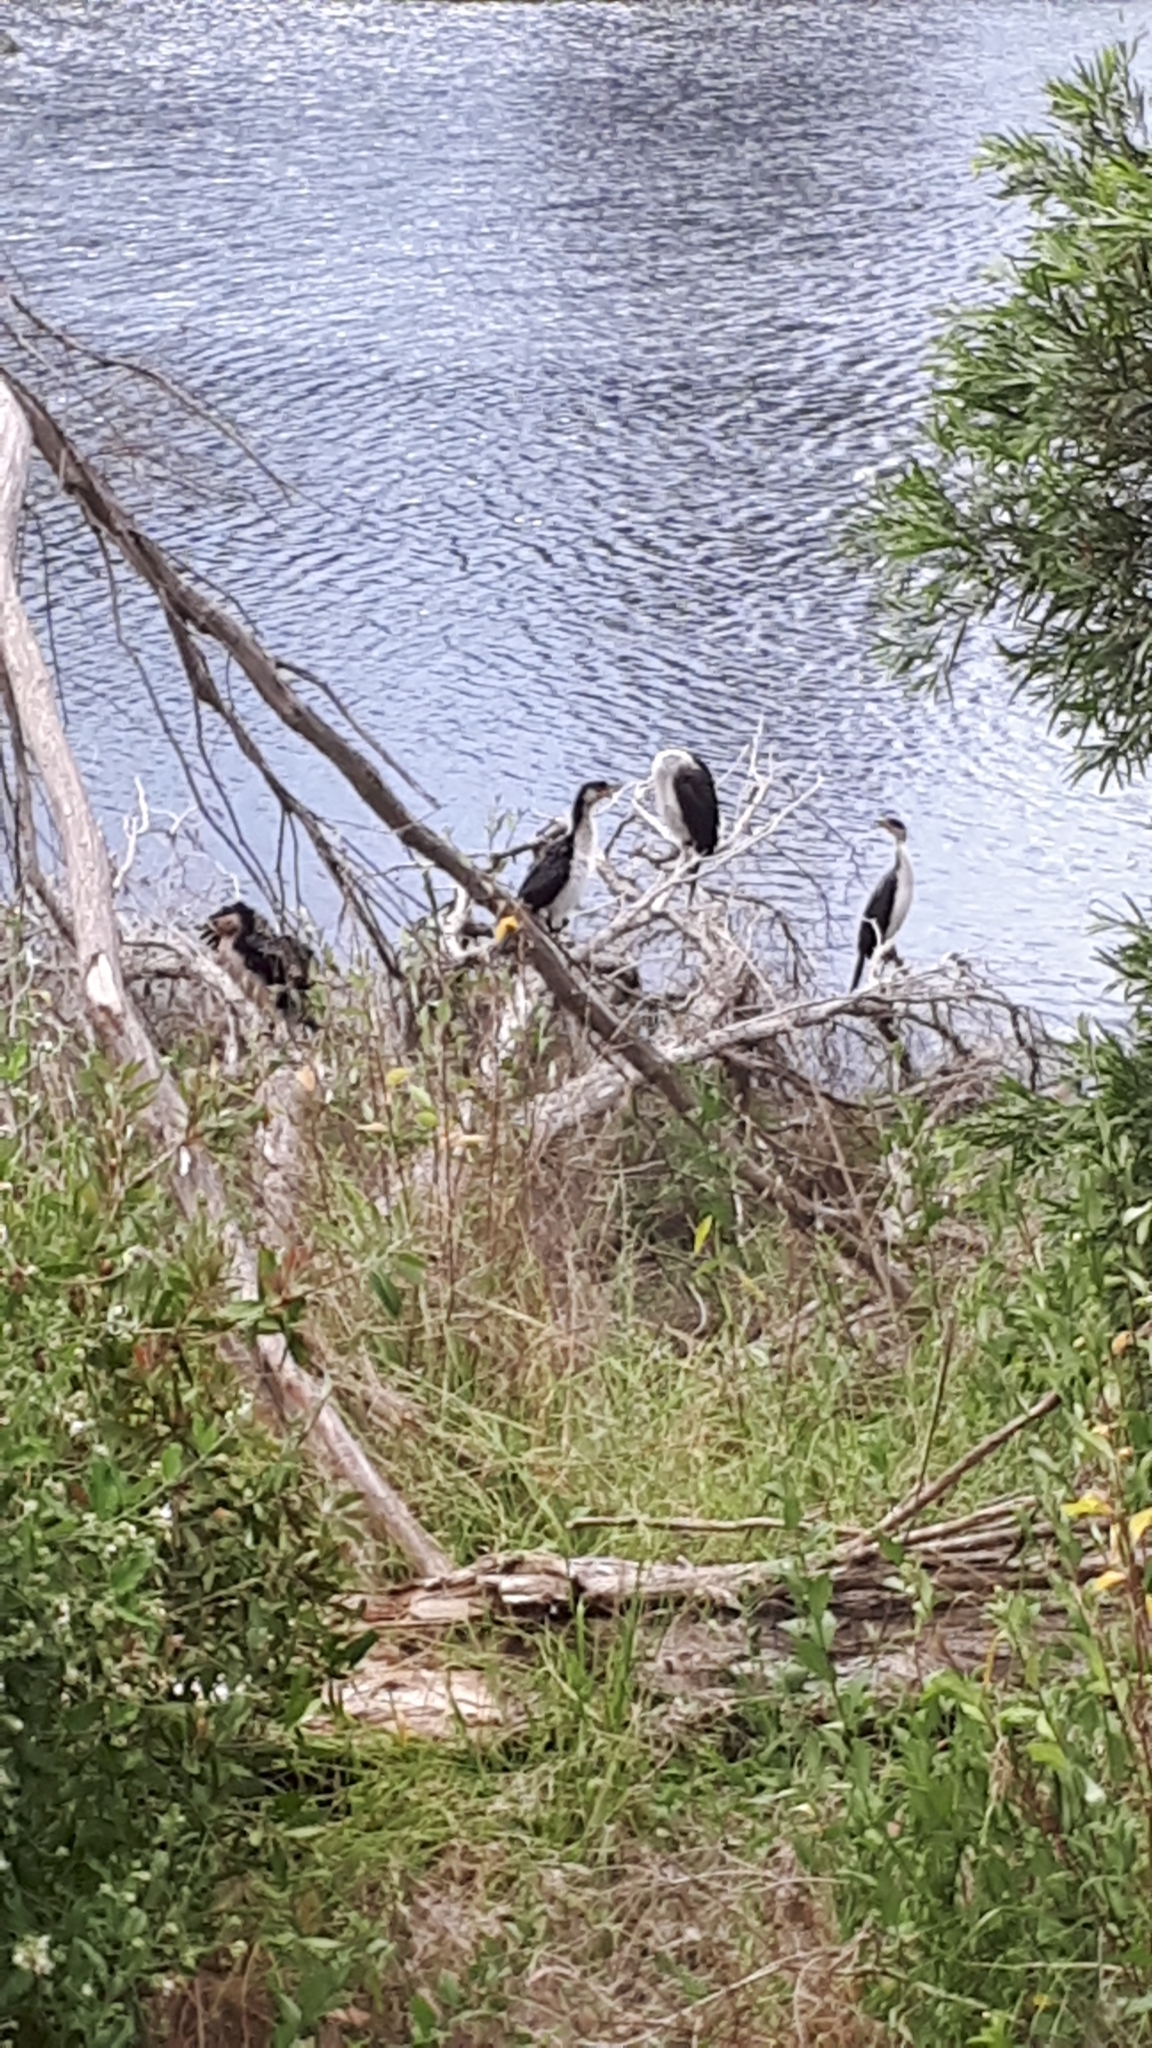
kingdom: Animalia
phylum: Chordata
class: Aves
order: Suliformes
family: Phalacrocoracidae
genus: Microcarbo
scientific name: Microcarbo melanoleucos
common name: Little pied cormorant
